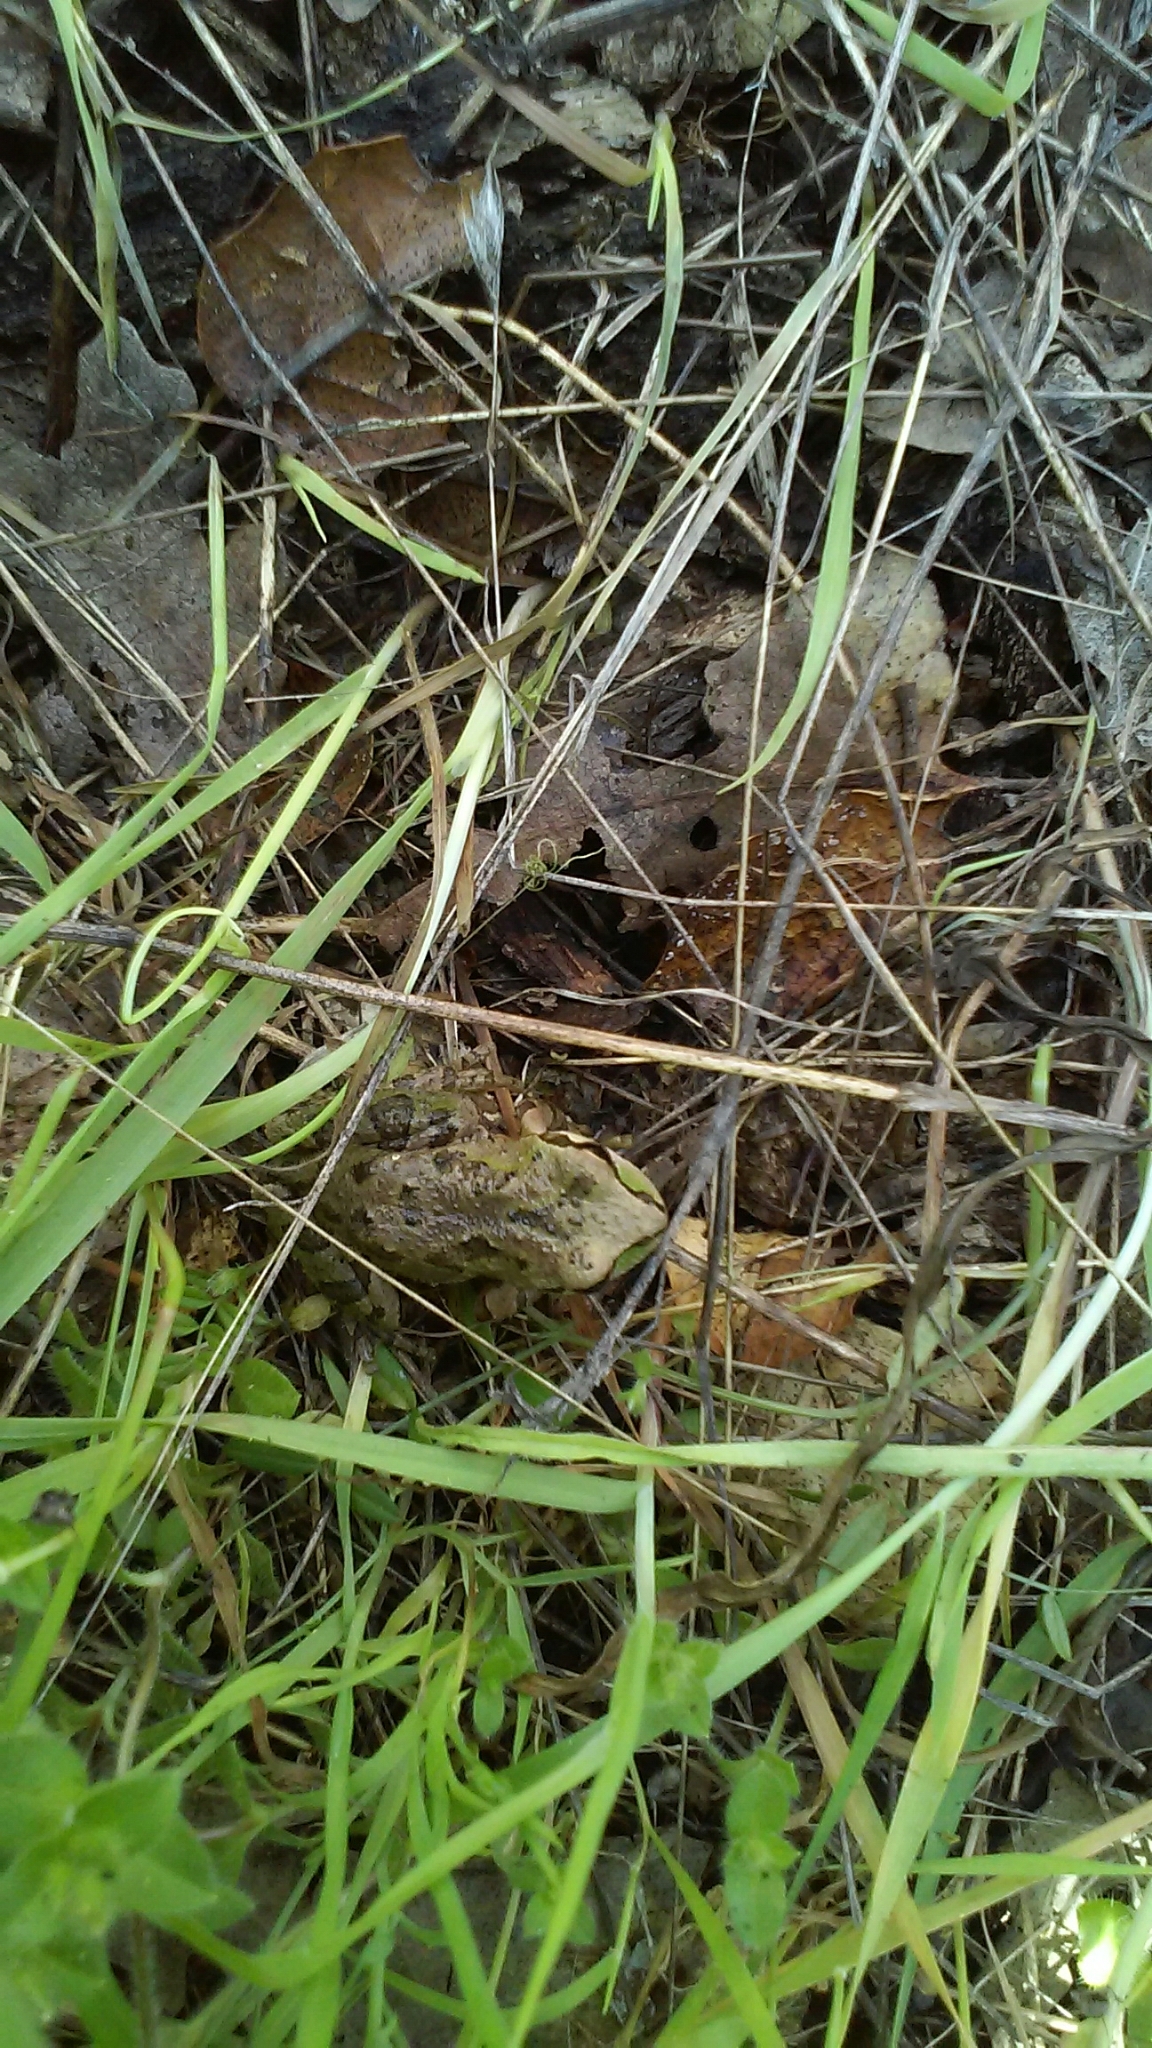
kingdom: Animalia
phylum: Chordata
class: Amphibia
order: Anura
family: Hylidae
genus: Pseudacris
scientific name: Pseudacris regilla
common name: Pacific chorus frog
